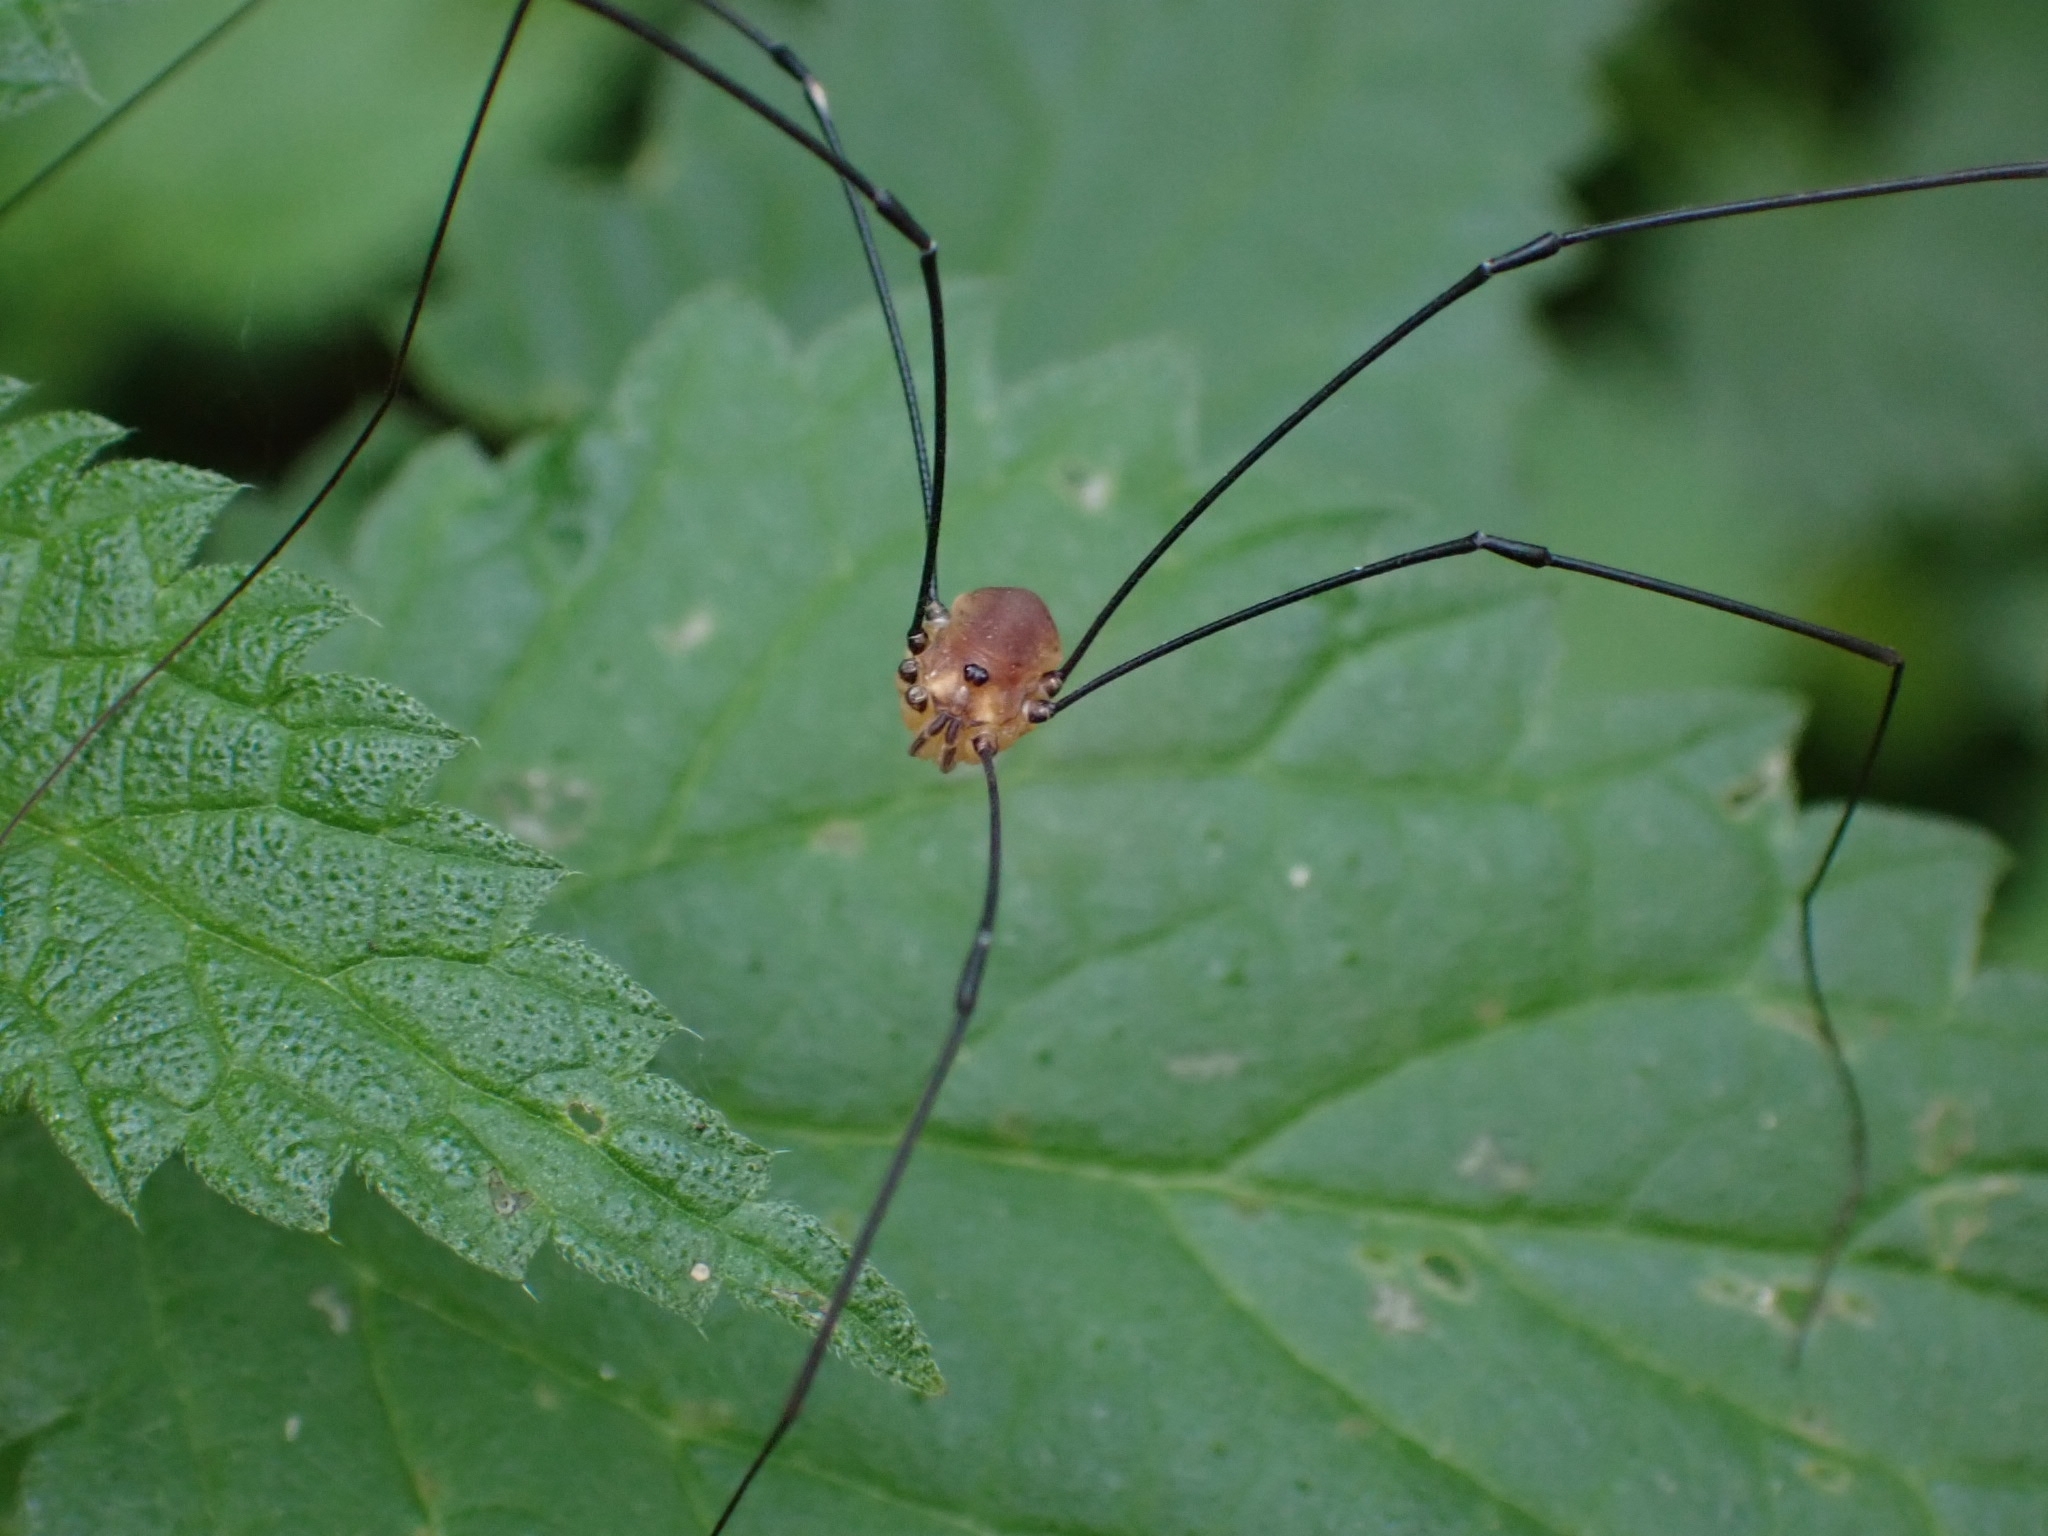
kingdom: Animalia
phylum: Arthropoda
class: Arachnida
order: Opiliones
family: Sclerosomatidae
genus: Leiobunum
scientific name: Leiobunum rotundum
